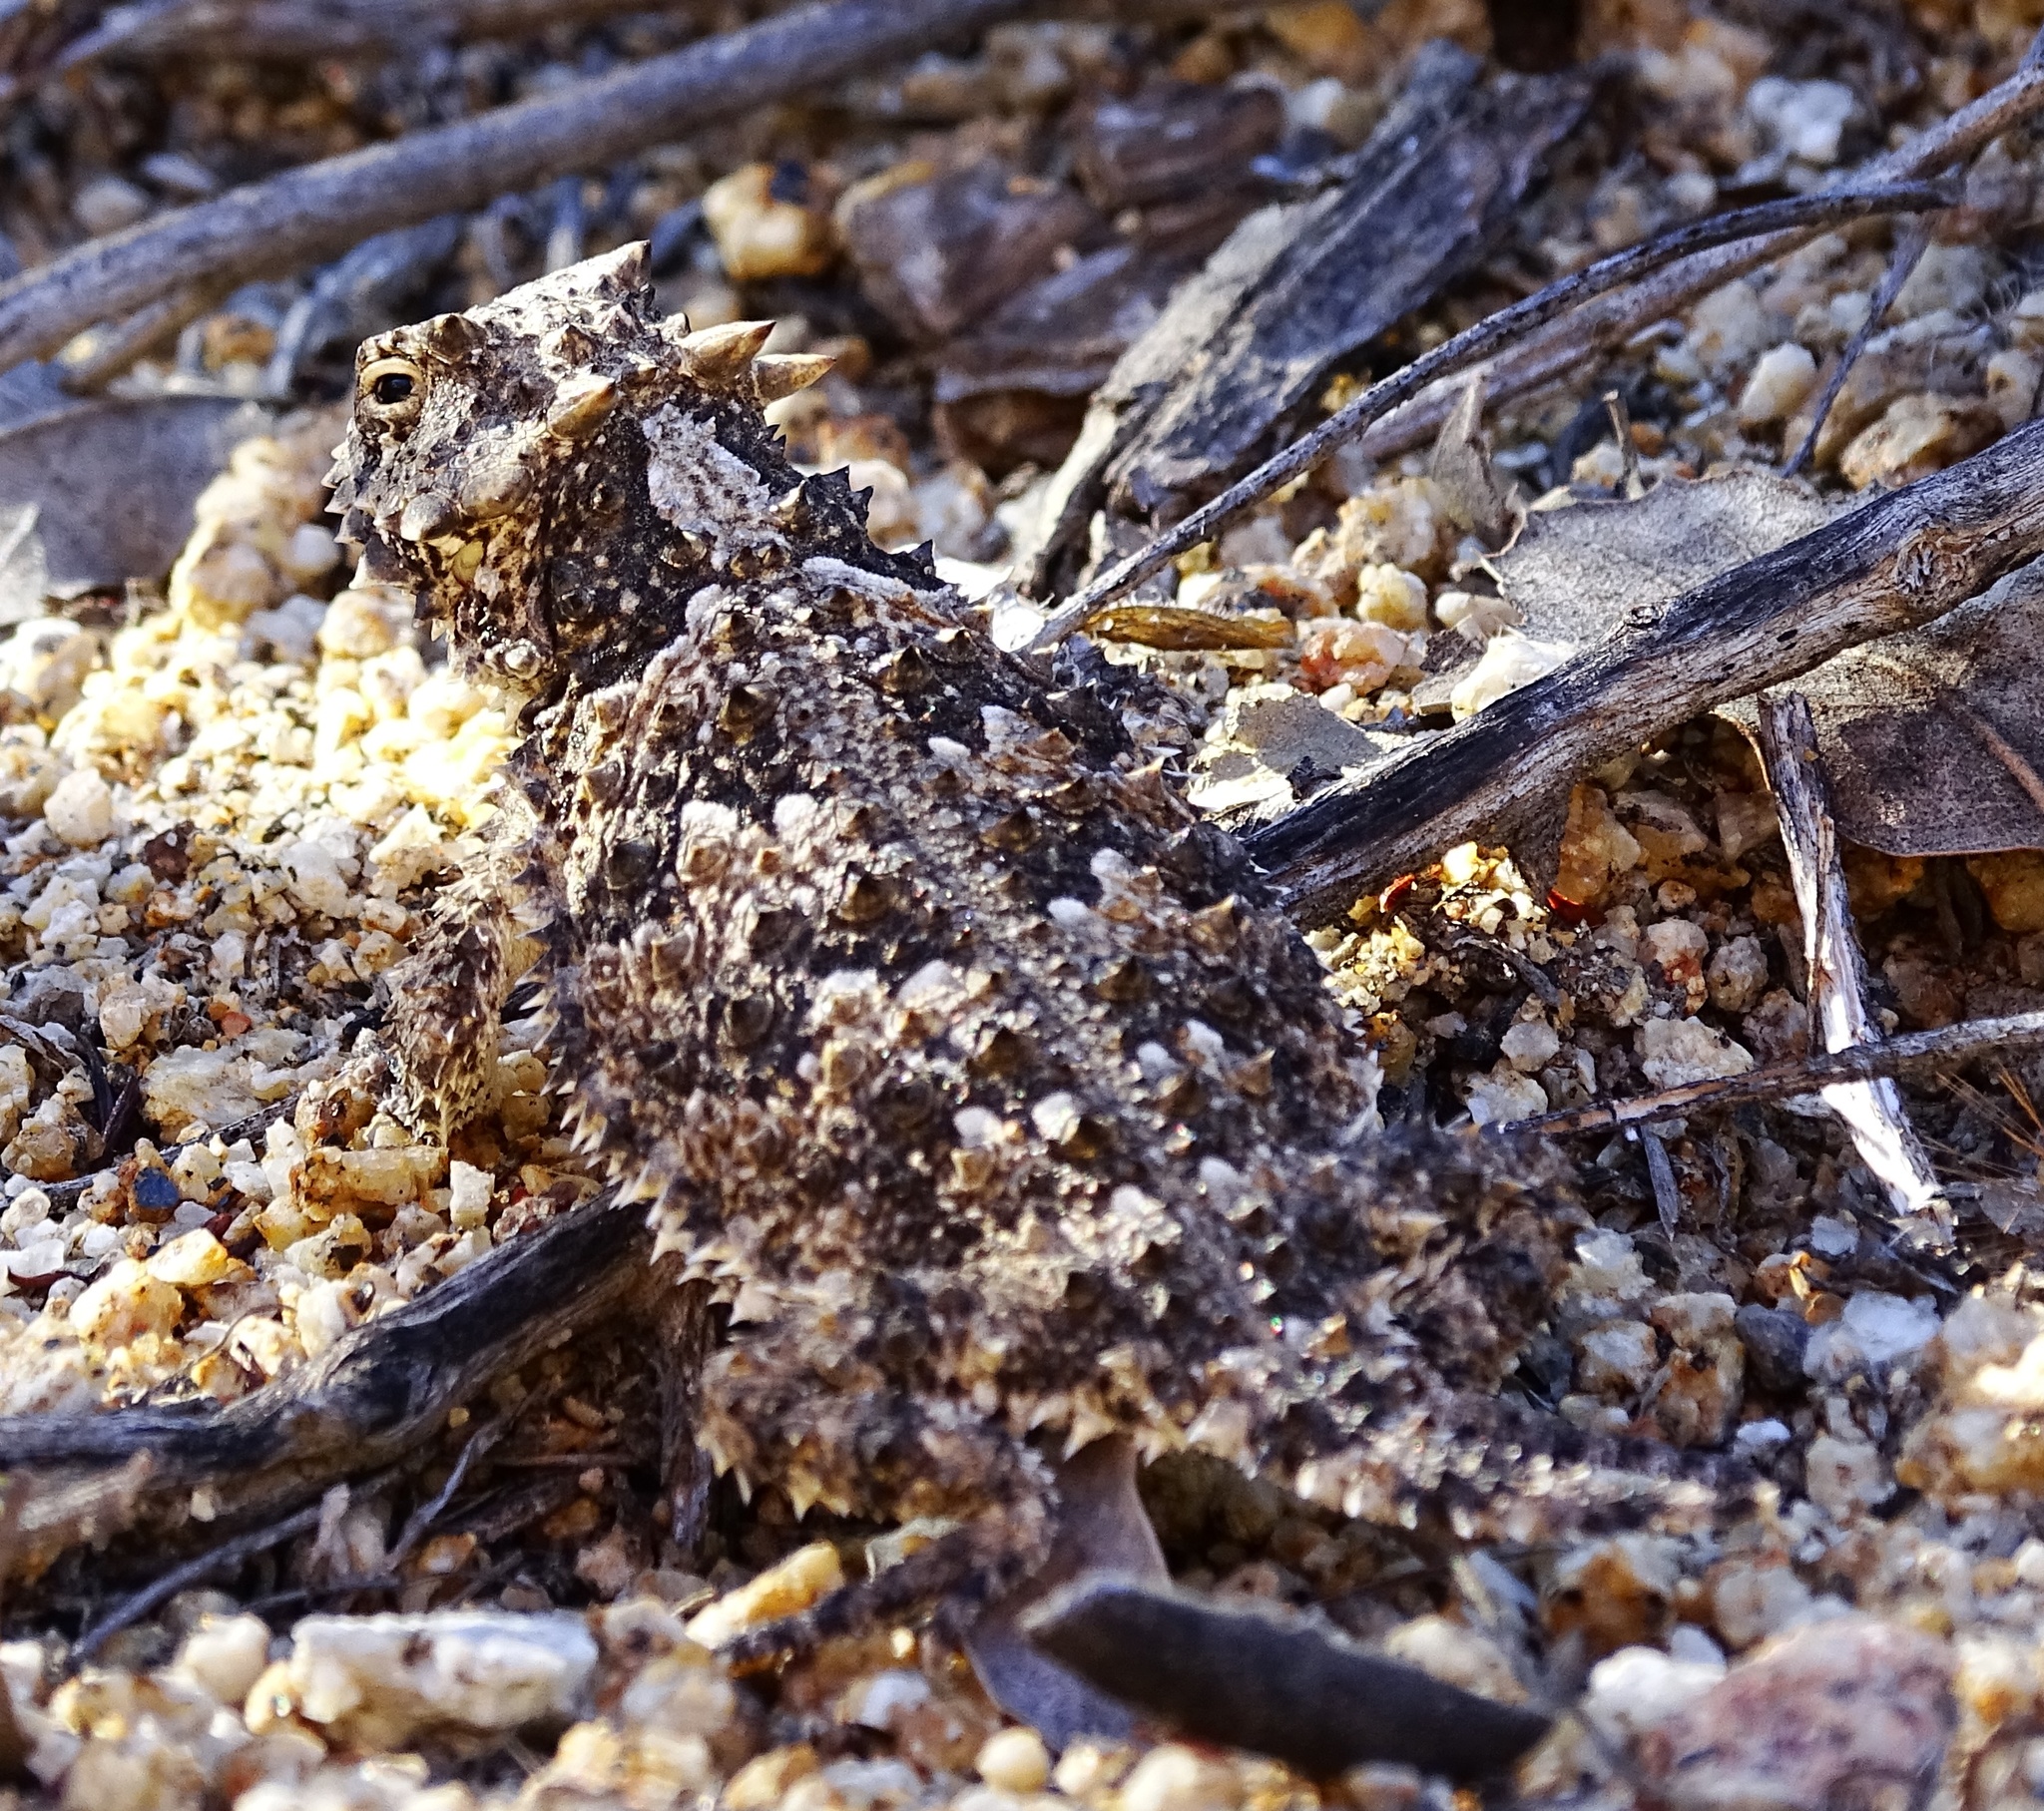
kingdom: Animalia
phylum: Chordata
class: Squamata
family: Phrynosomatidae
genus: Phrynosoma
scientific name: Phrynosoma blainvillii
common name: San diego horned lizard
